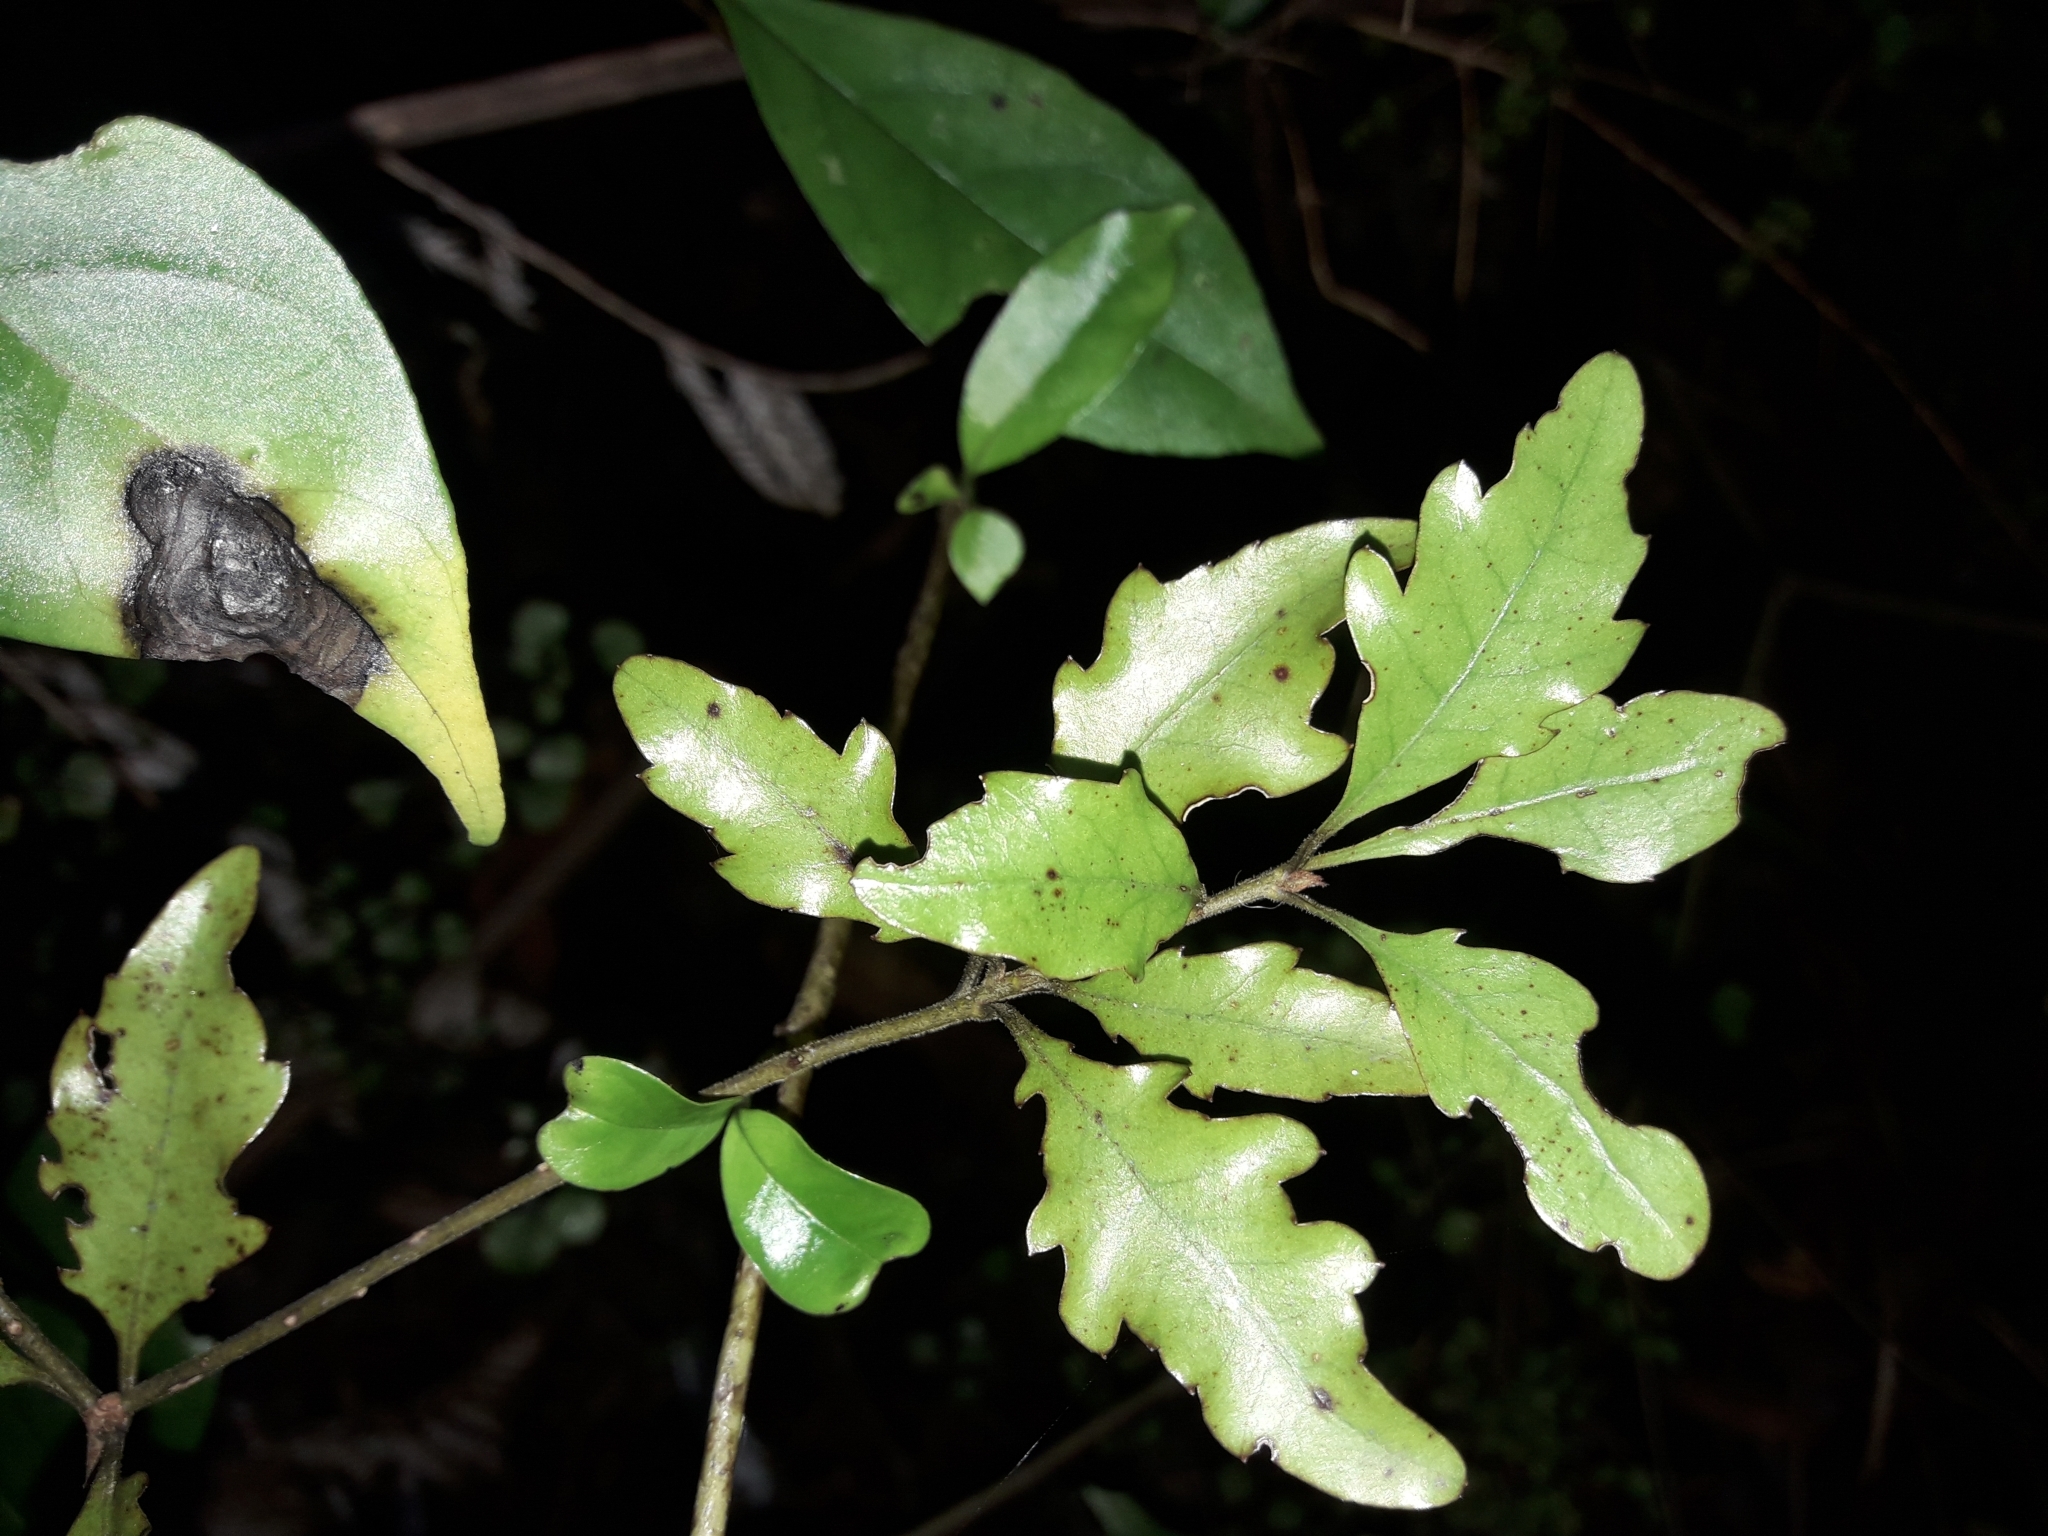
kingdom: Plantae
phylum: Tracheophyta
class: Magnoliopsida
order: Asterales
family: Alseuosmiaceae
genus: Alseuosmia
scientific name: Alseuosmia banksii
